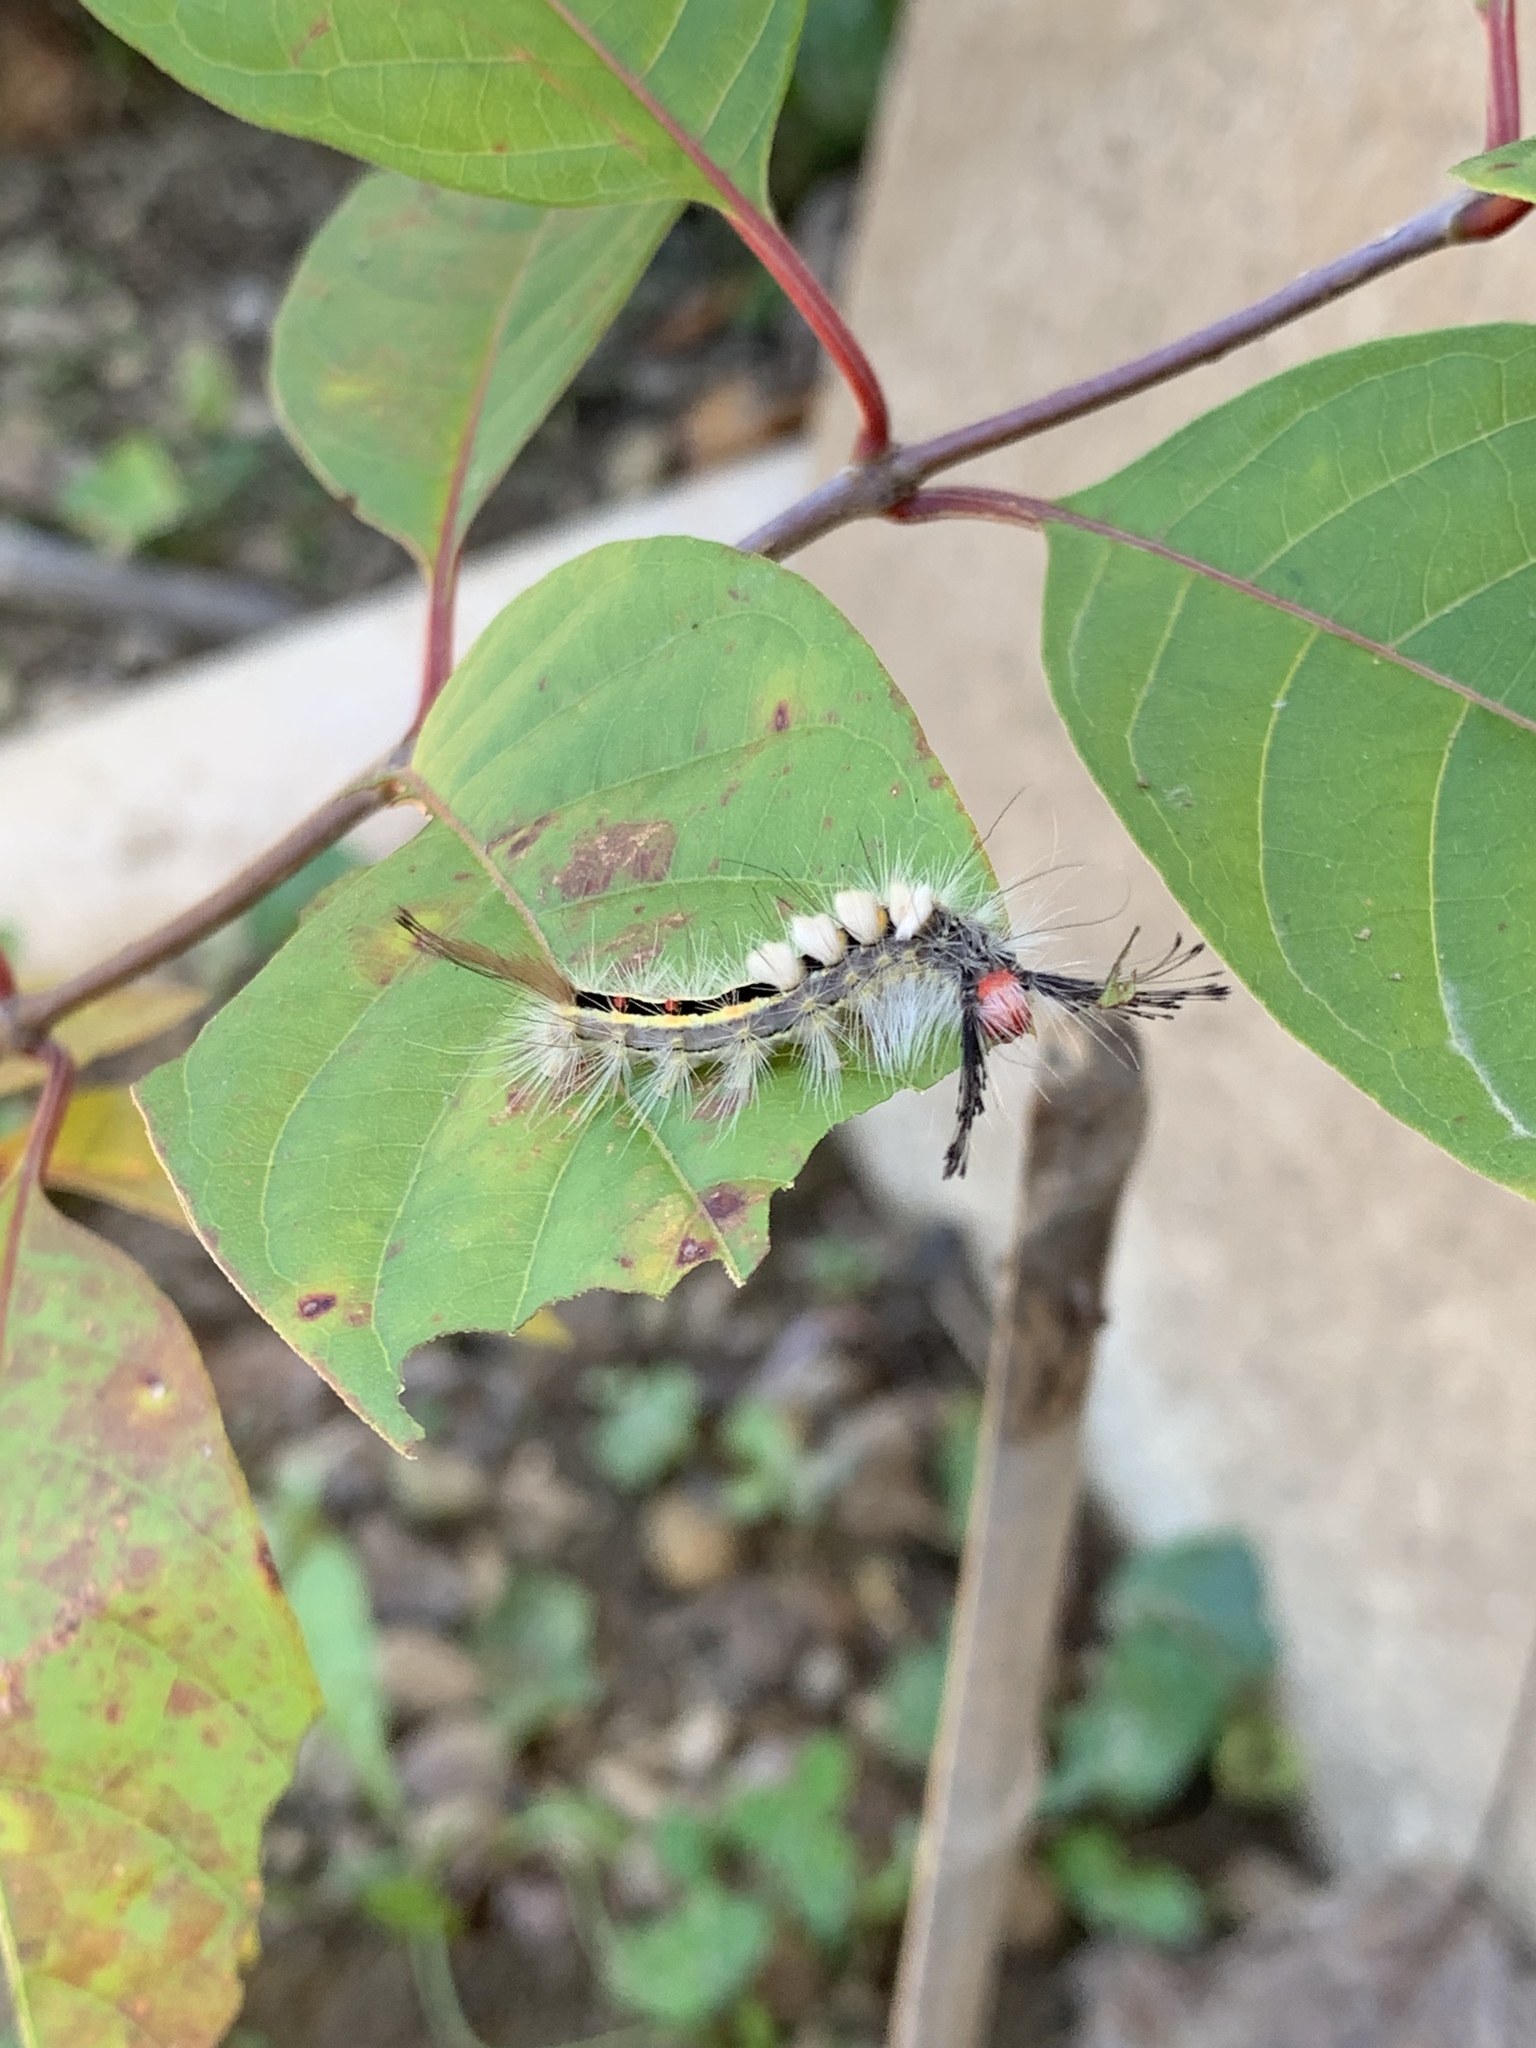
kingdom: Animalia
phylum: Arthropoda
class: Insecta
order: Lepidoptera
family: Erebidae
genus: Orgyia
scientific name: Orgyia leucostigma
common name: White-marked tussock moth
